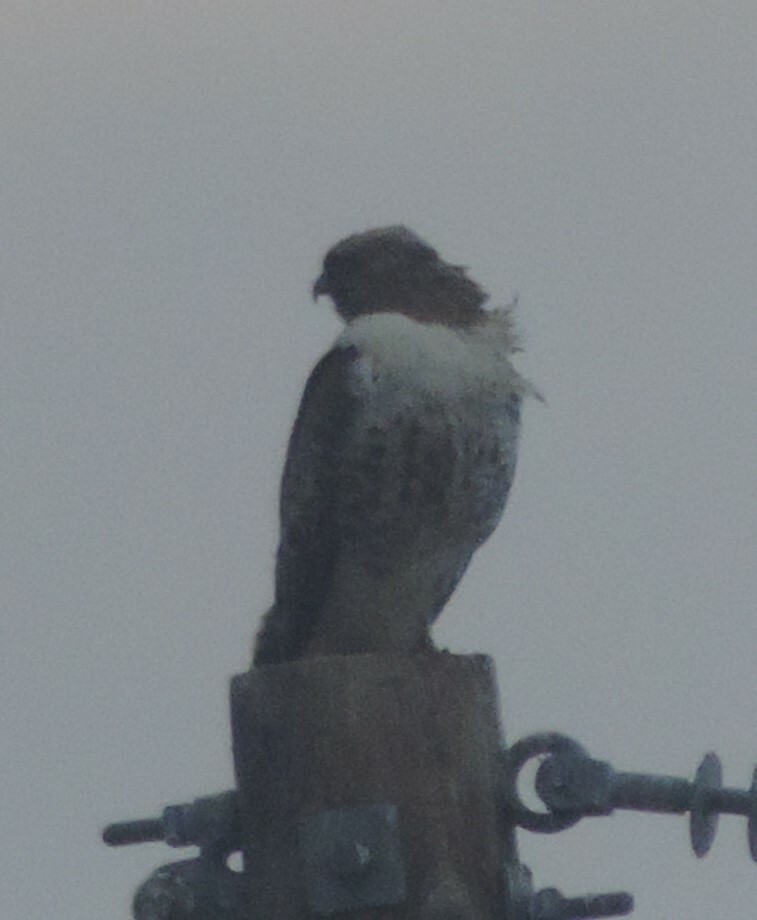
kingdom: Animalia
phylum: Chordata
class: Aves
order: Accipitriformes
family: Accipitridae
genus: Buteo
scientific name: Buteo jamaicensis
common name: Red-tailed hawk
